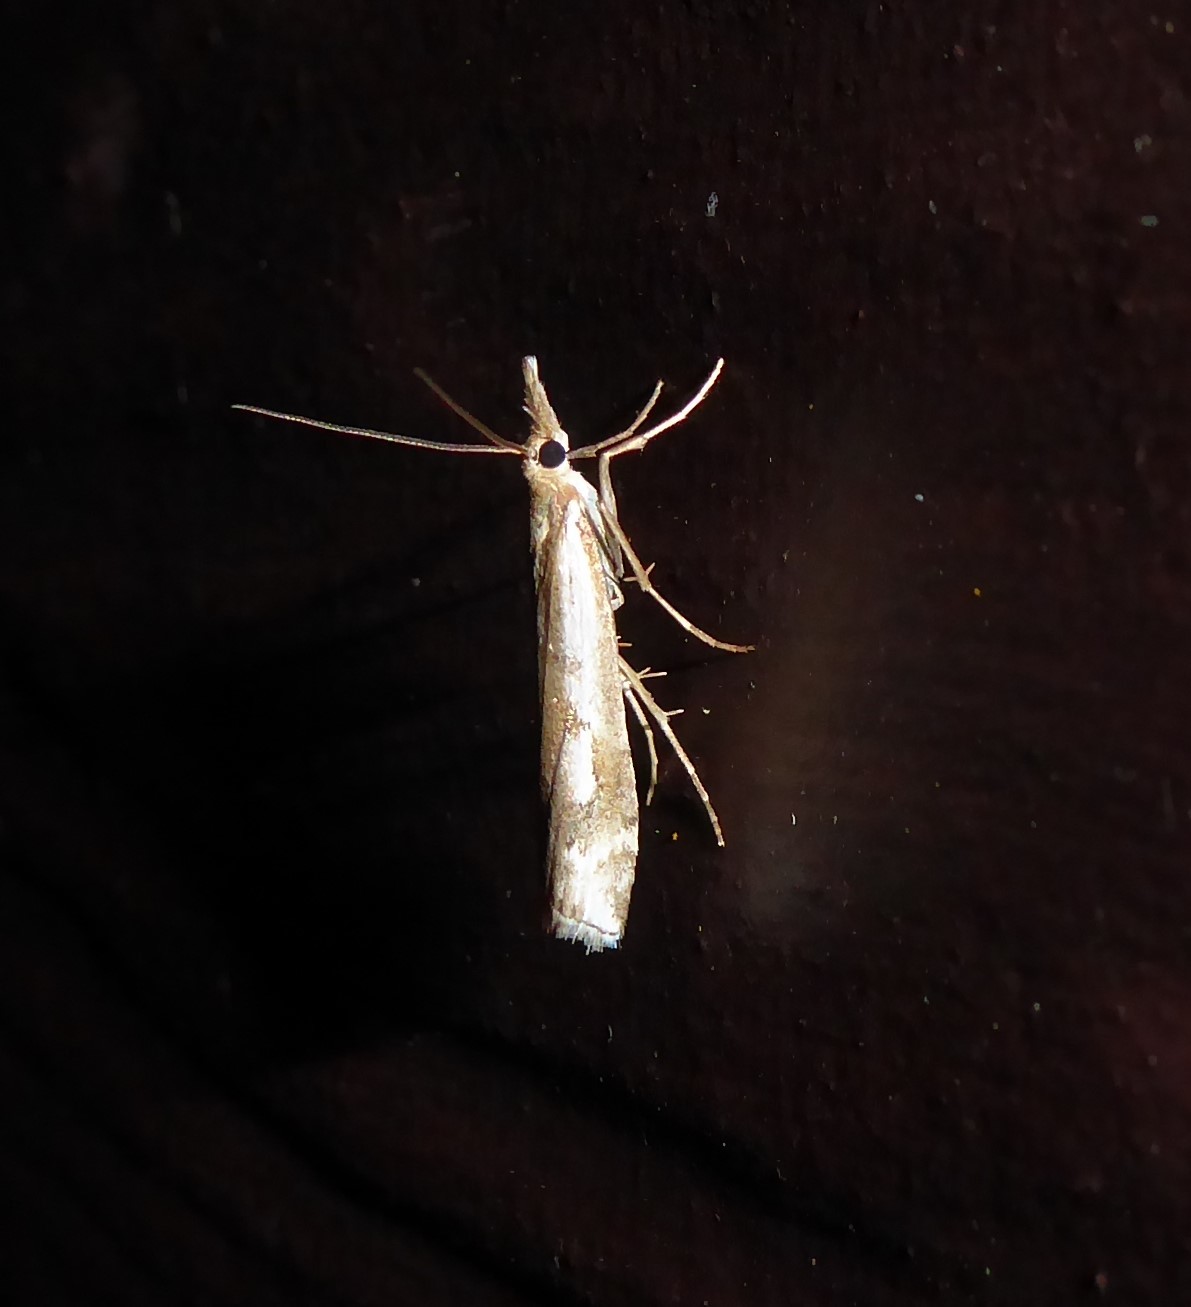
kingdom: Animalia
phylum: Arthropoda
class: Insecta
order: Lepidoptera
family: Crambidae
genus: Orocrambus
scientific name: Orocrambus vulgaris
